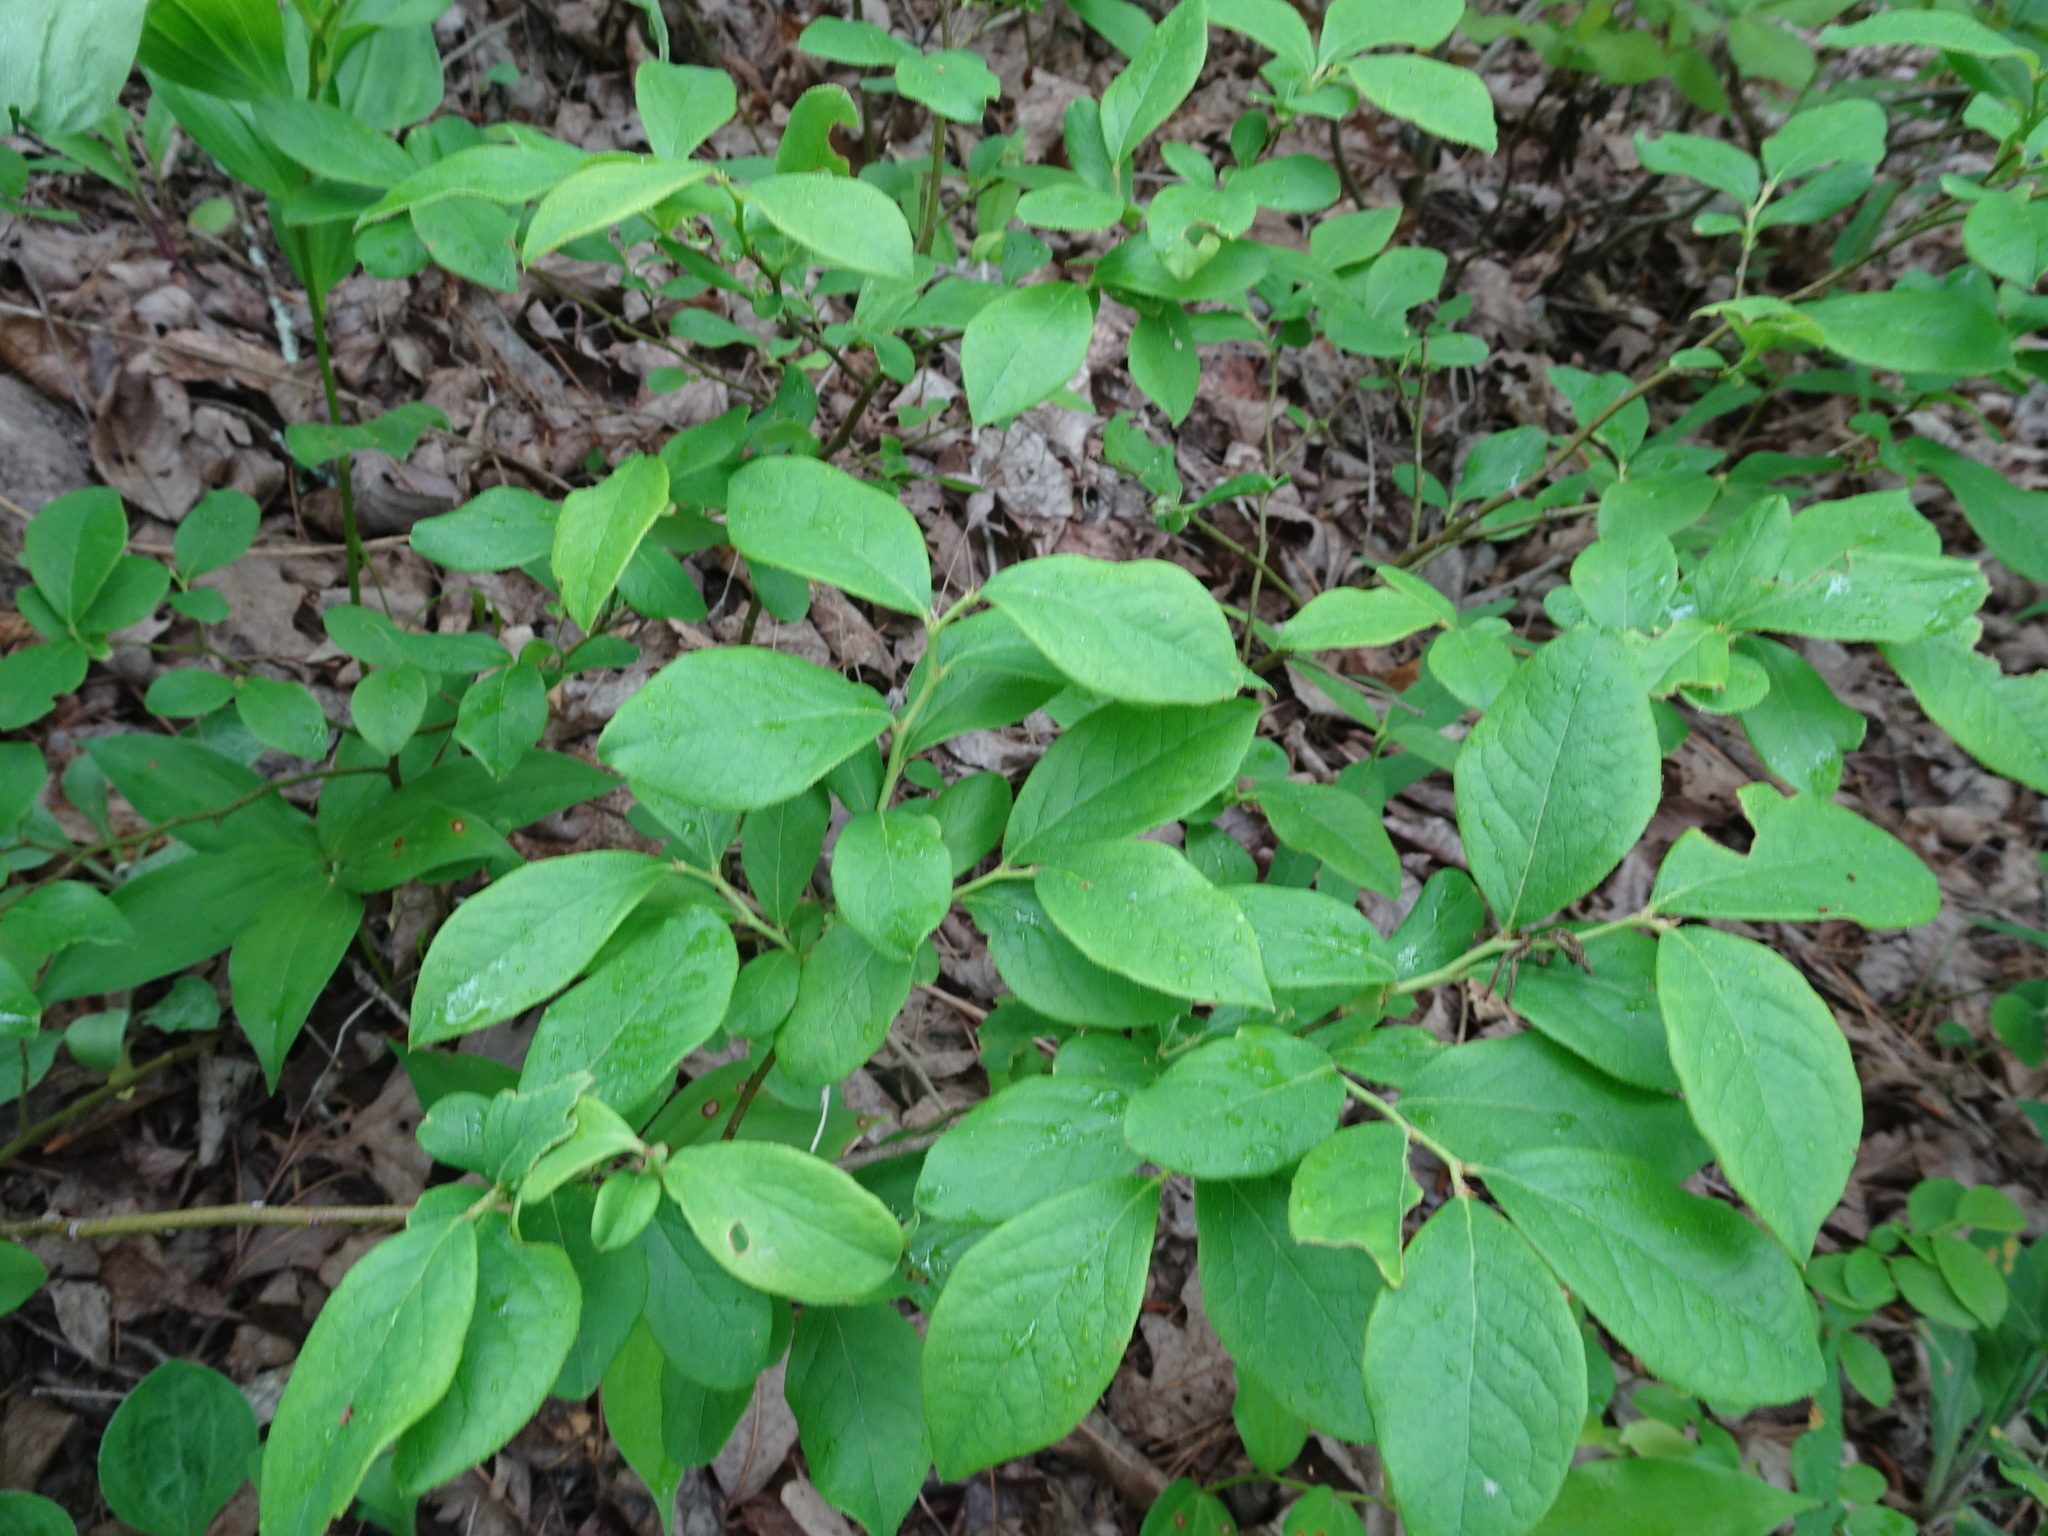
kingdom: Plantae
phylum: Tracheophyta
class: Magnoliopsida
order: Ericales
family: Ericaceae
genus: Vaccinium
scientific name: Vaccinium pallidum
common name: Blue ridge blueberry
